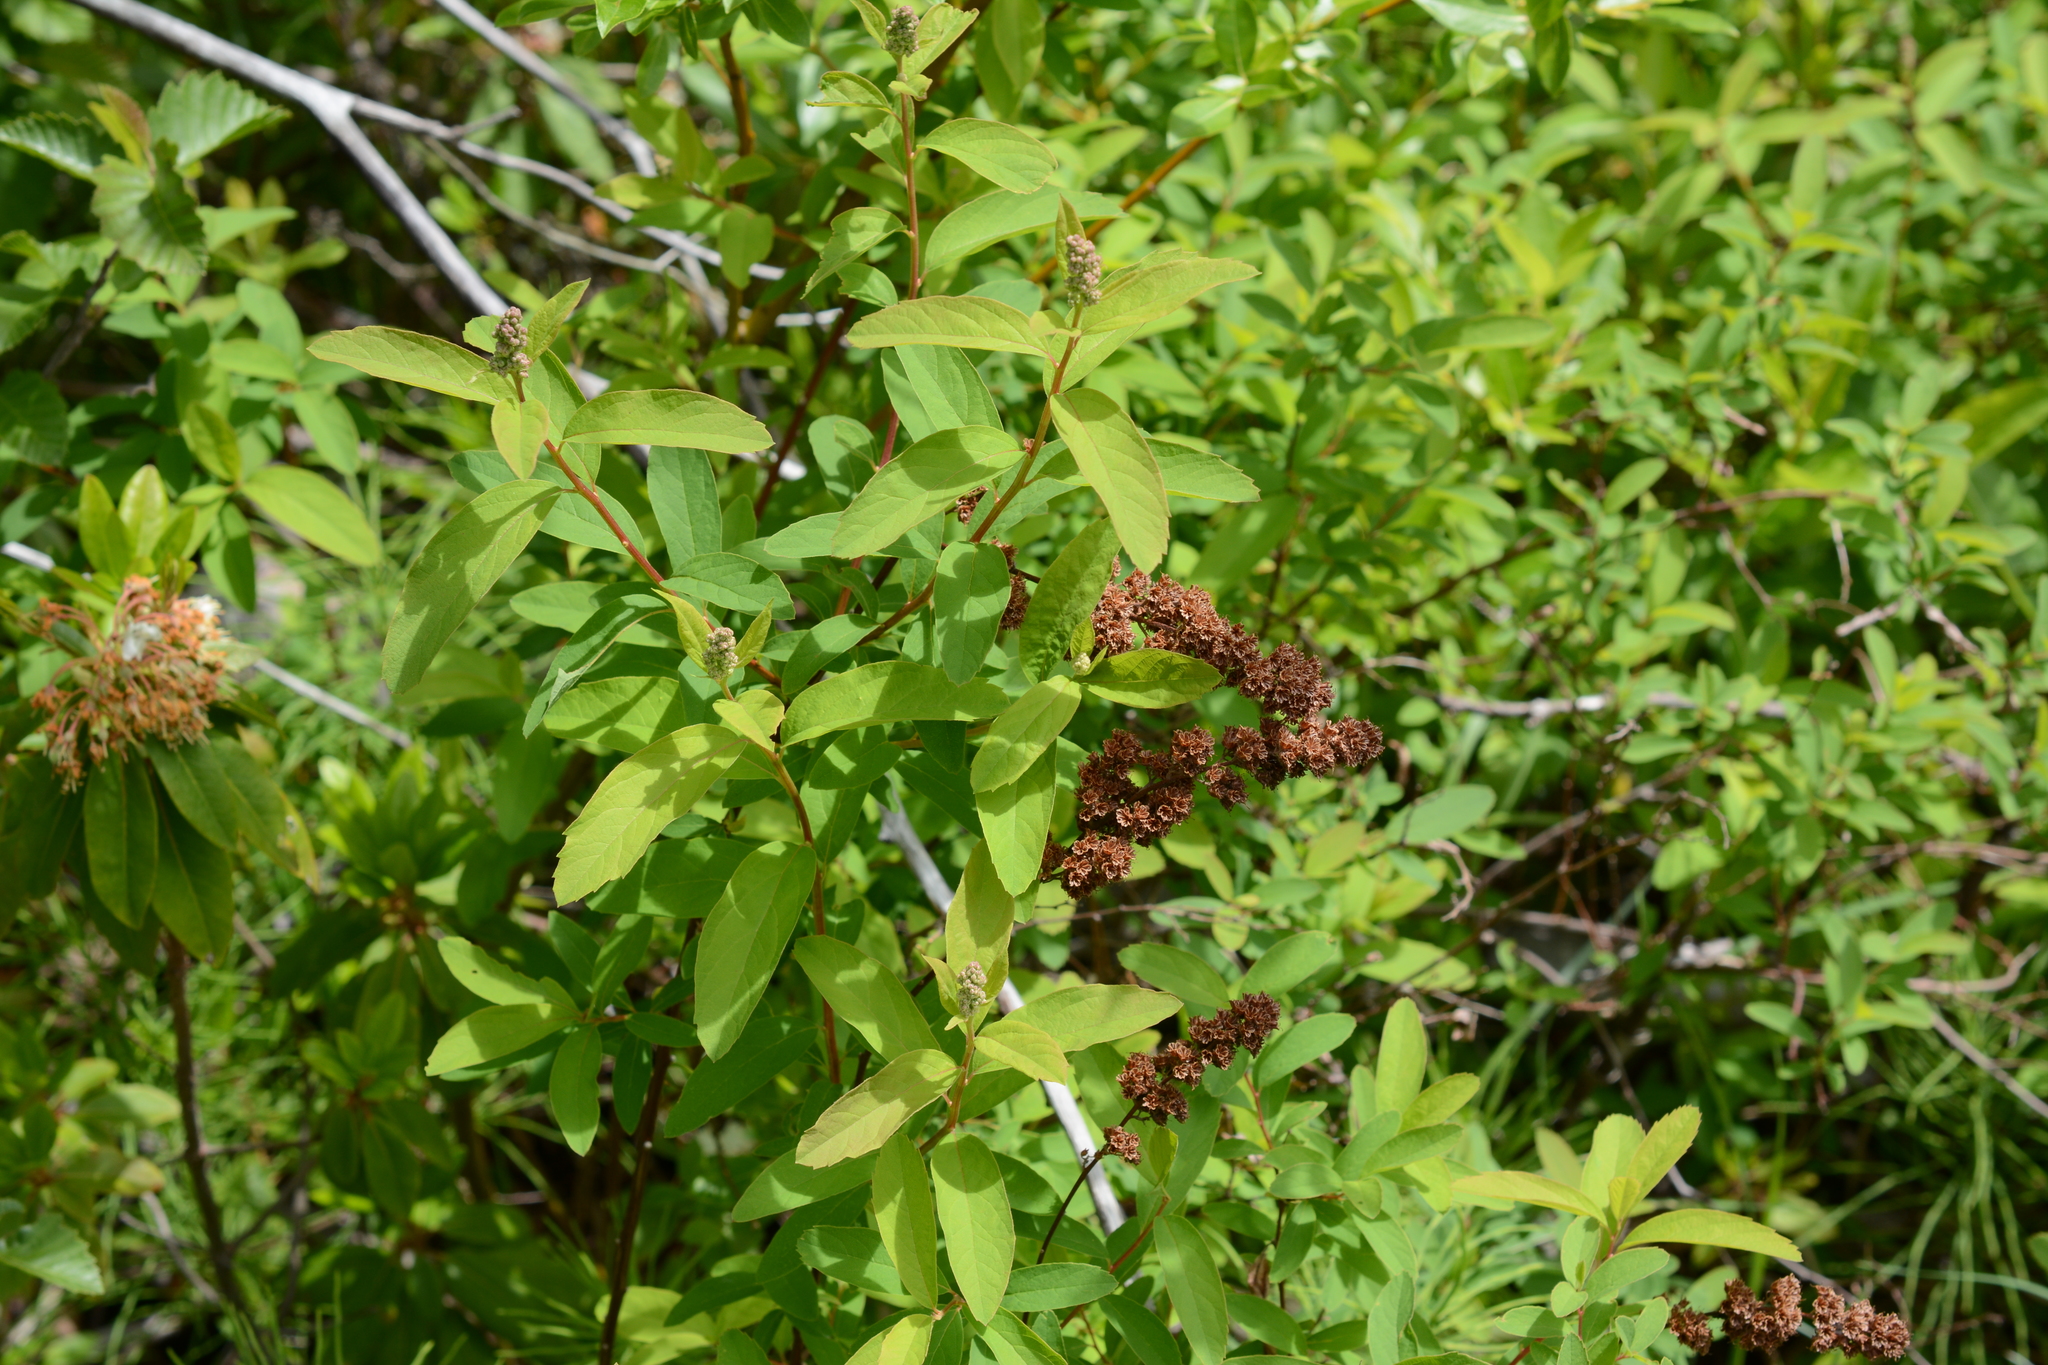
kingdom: Plantae
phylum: Tracheophyta
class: Magnoliopsida
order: Rosales
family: Rosaceae
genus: Spiraea
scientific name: Spiraea douglasii
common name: Steeplebush
